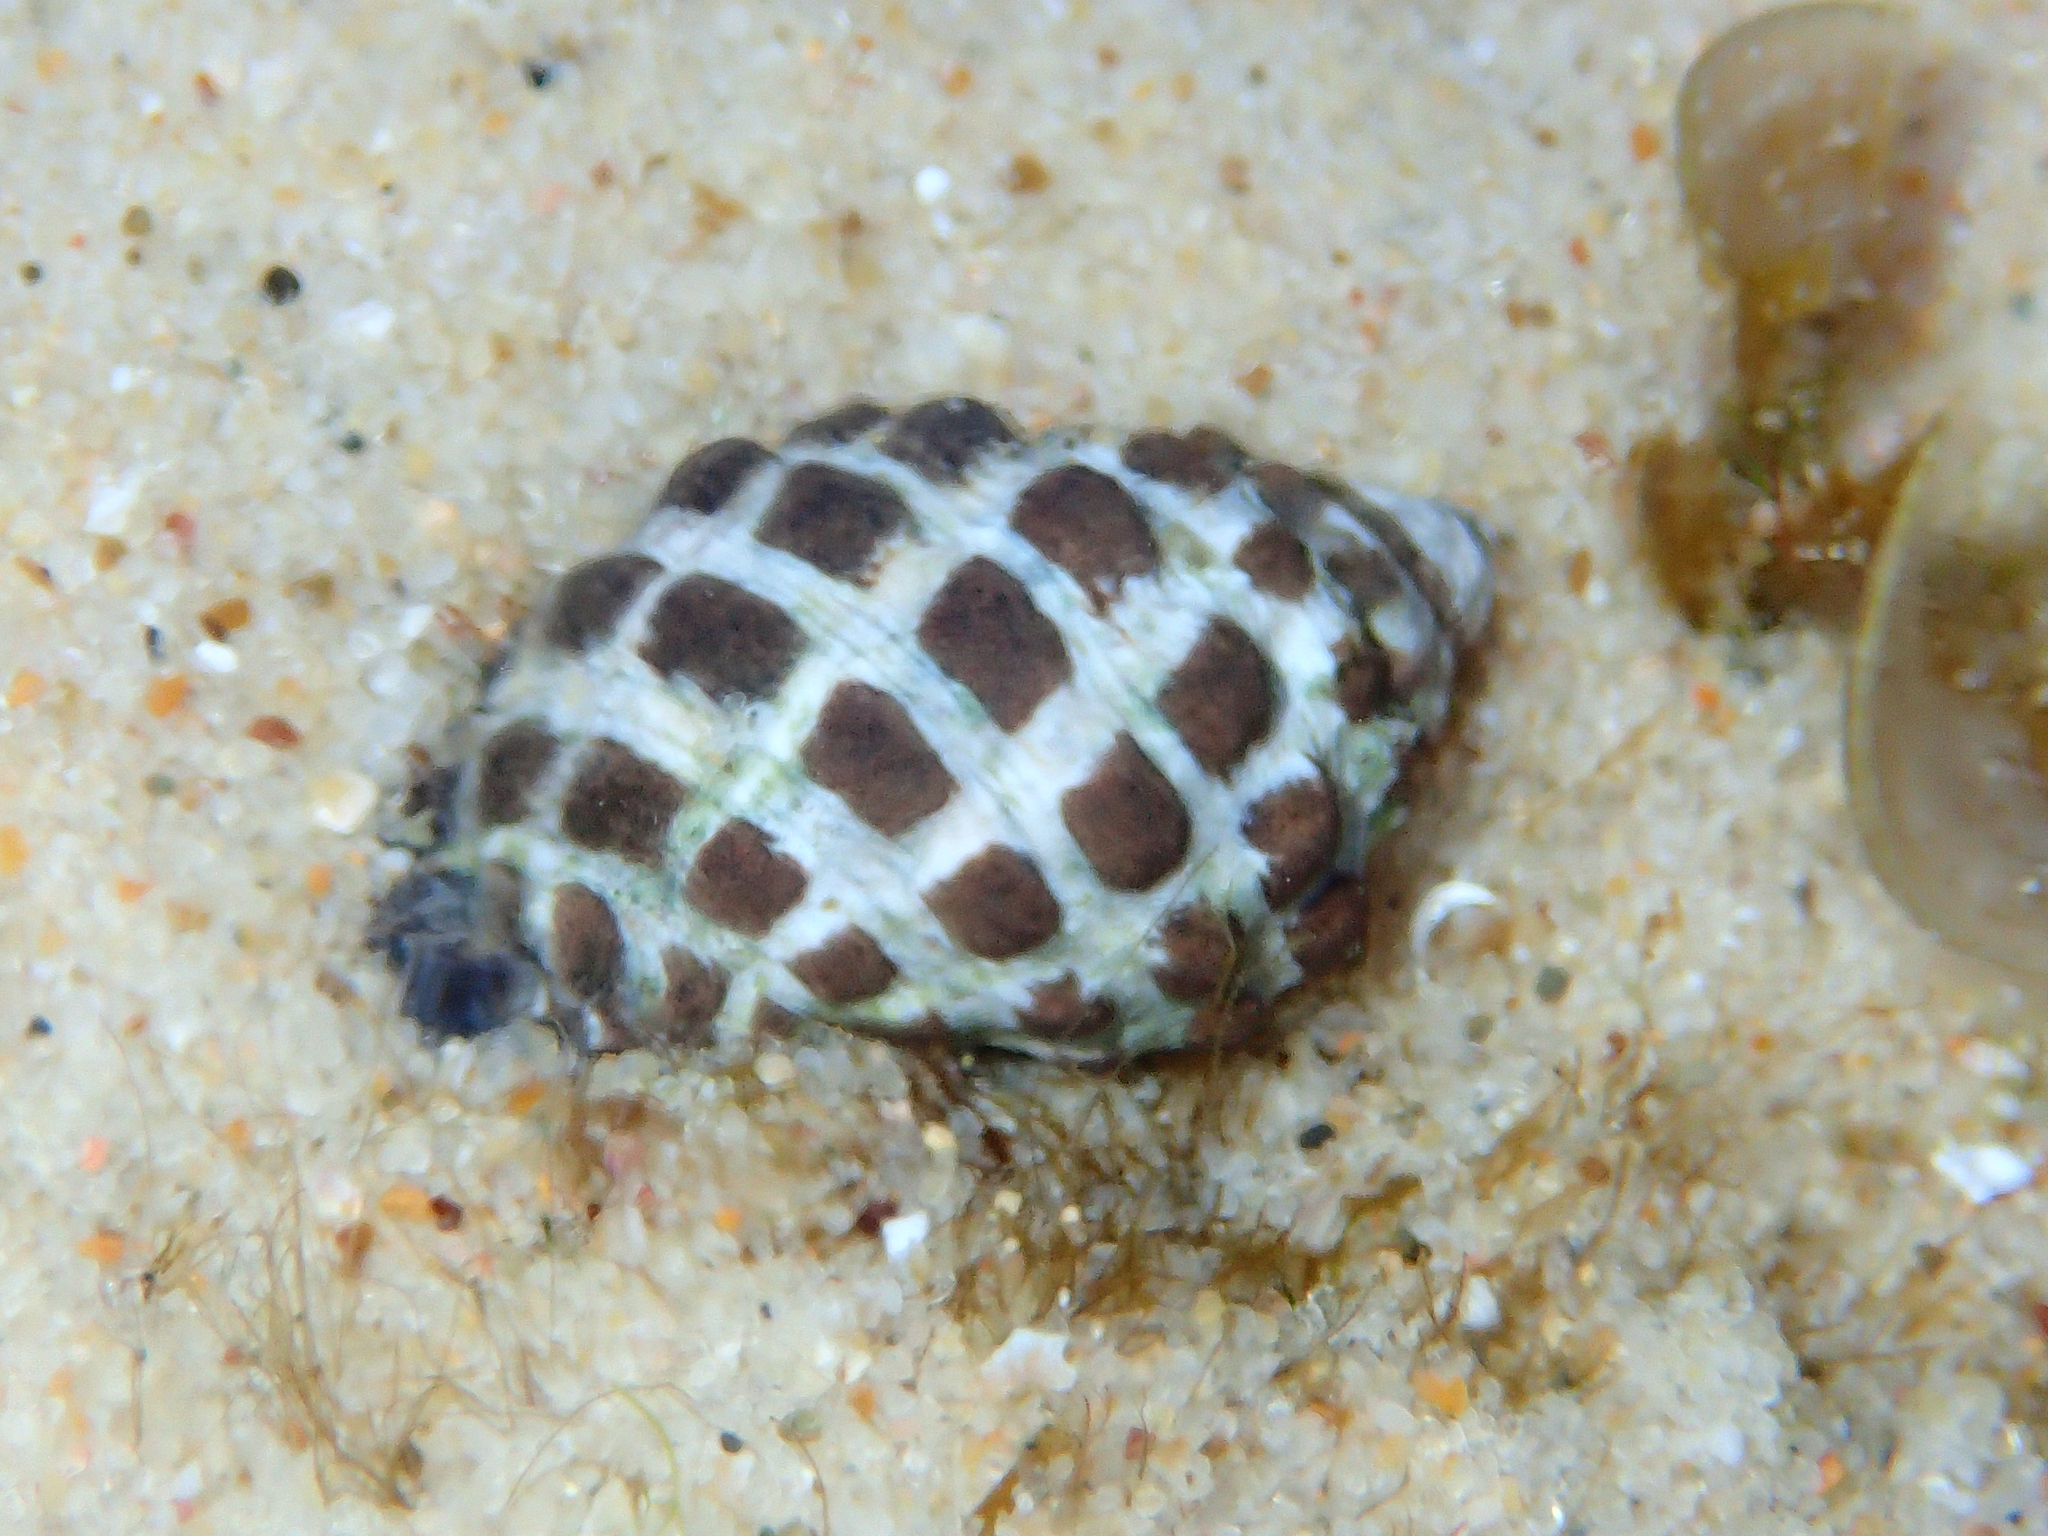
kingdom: Animalia
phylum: Mollusca
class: Gastropoda
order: Neogastropoda
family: Muricidae
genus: Tenguella
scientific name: Tenguella marginalba
